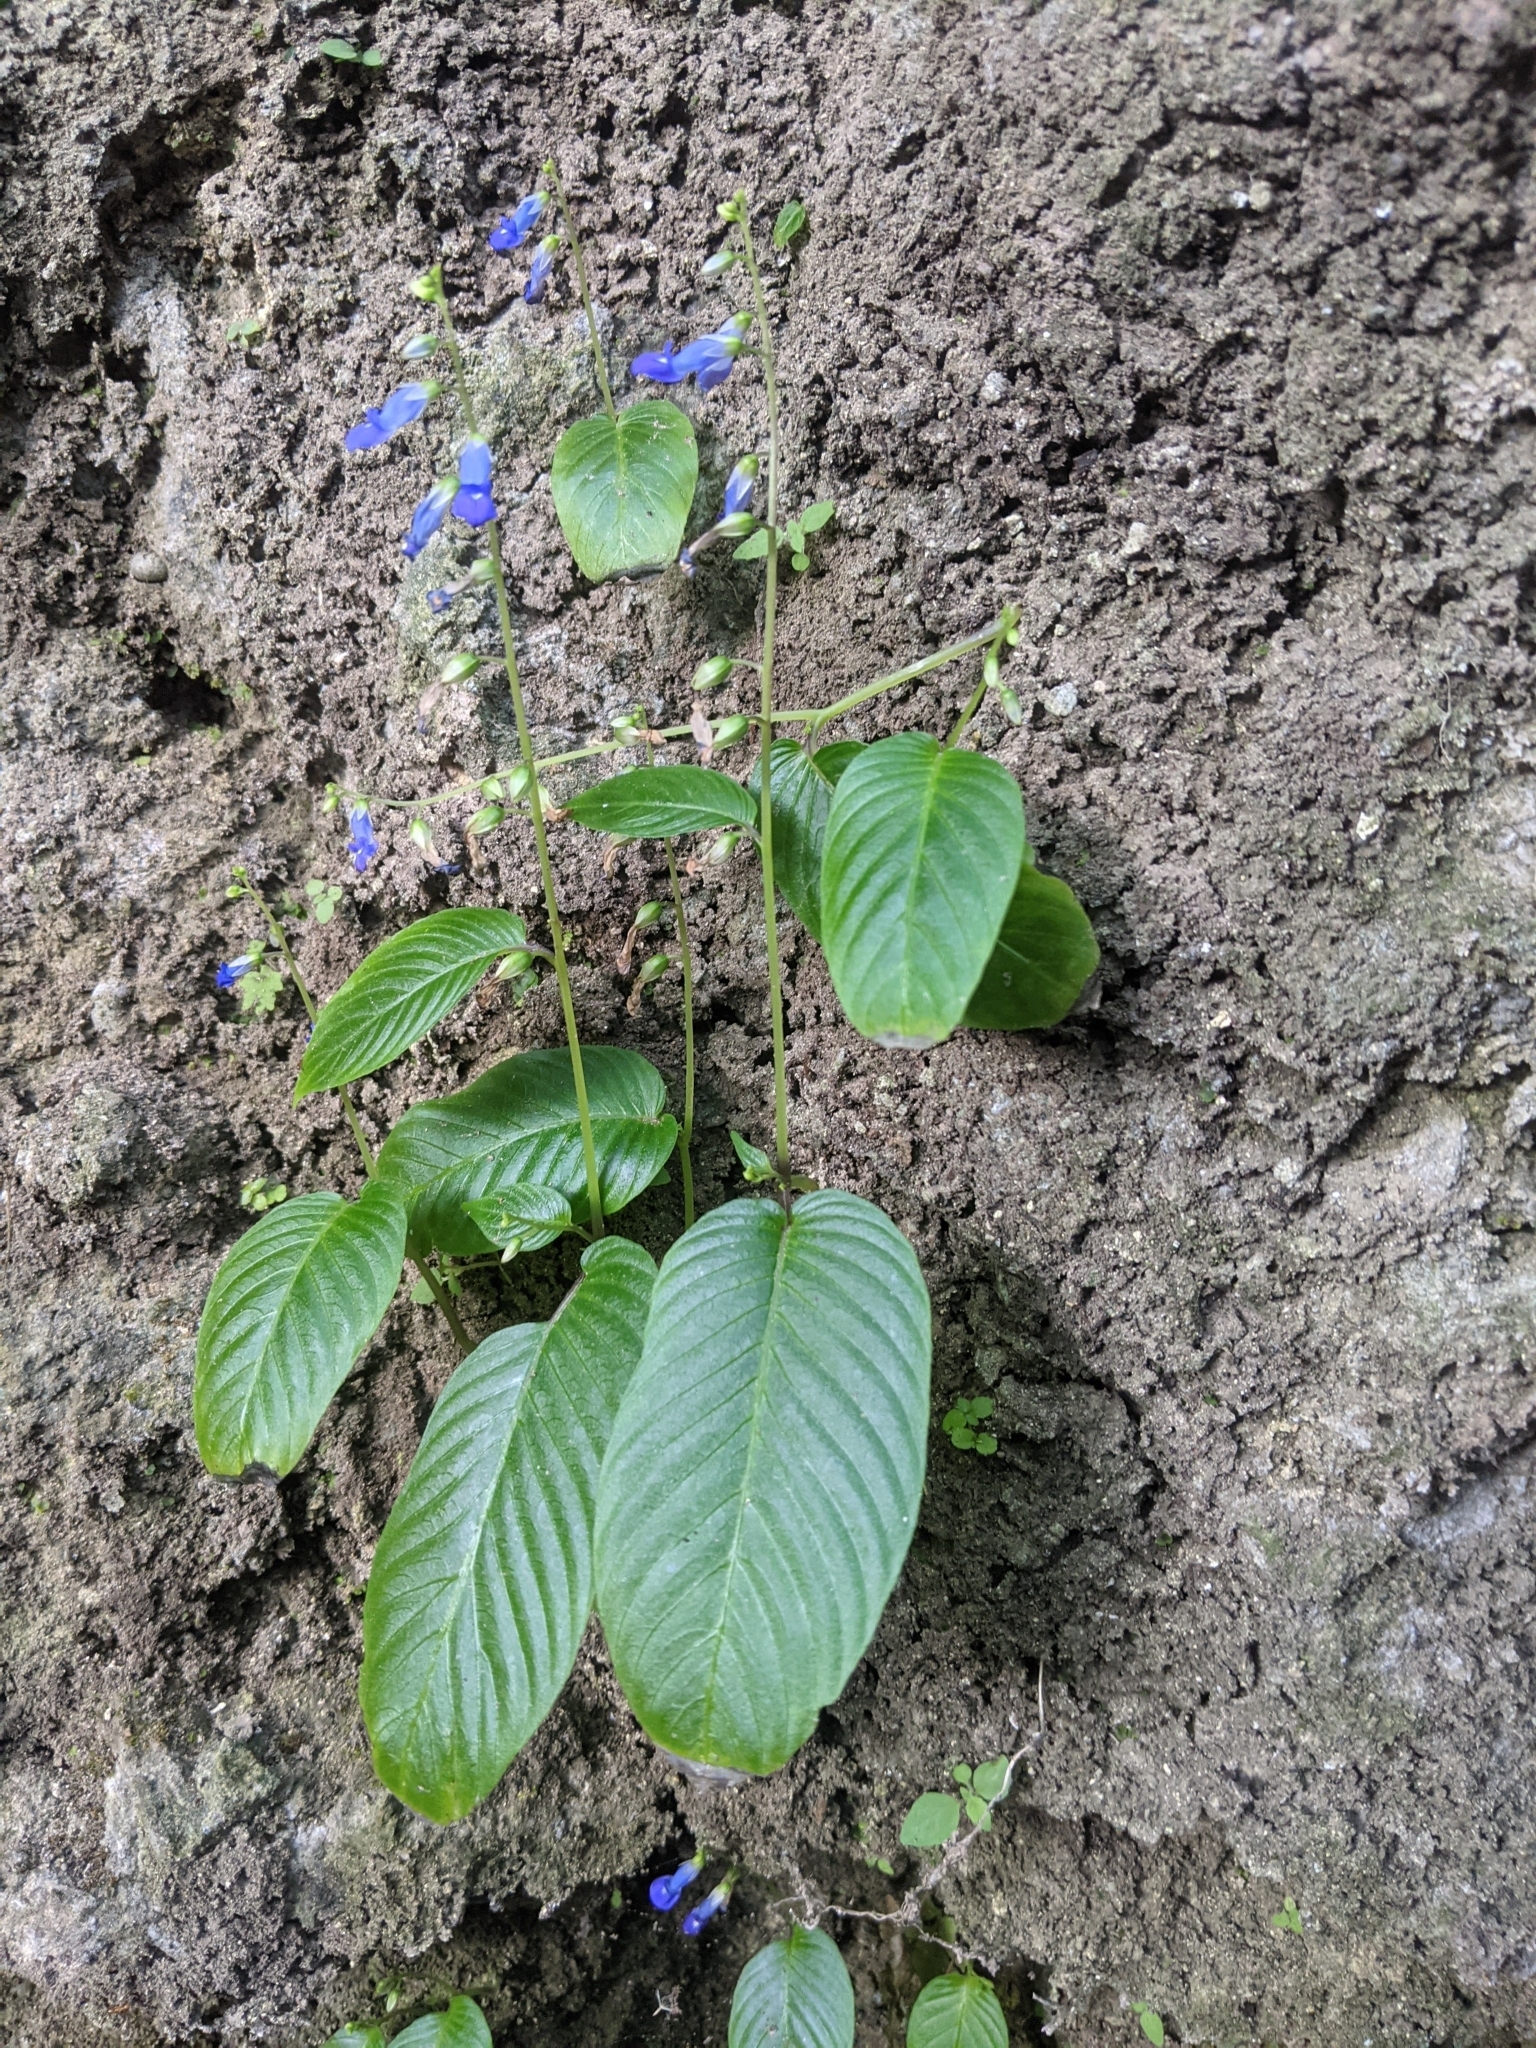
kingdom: Plantae
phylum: Tracheophyta
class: Magnoliopsida
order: Lamiales
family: Gesneriaceae
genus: Rhynchoglossum
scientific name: Rhynchoglossum obliquum
